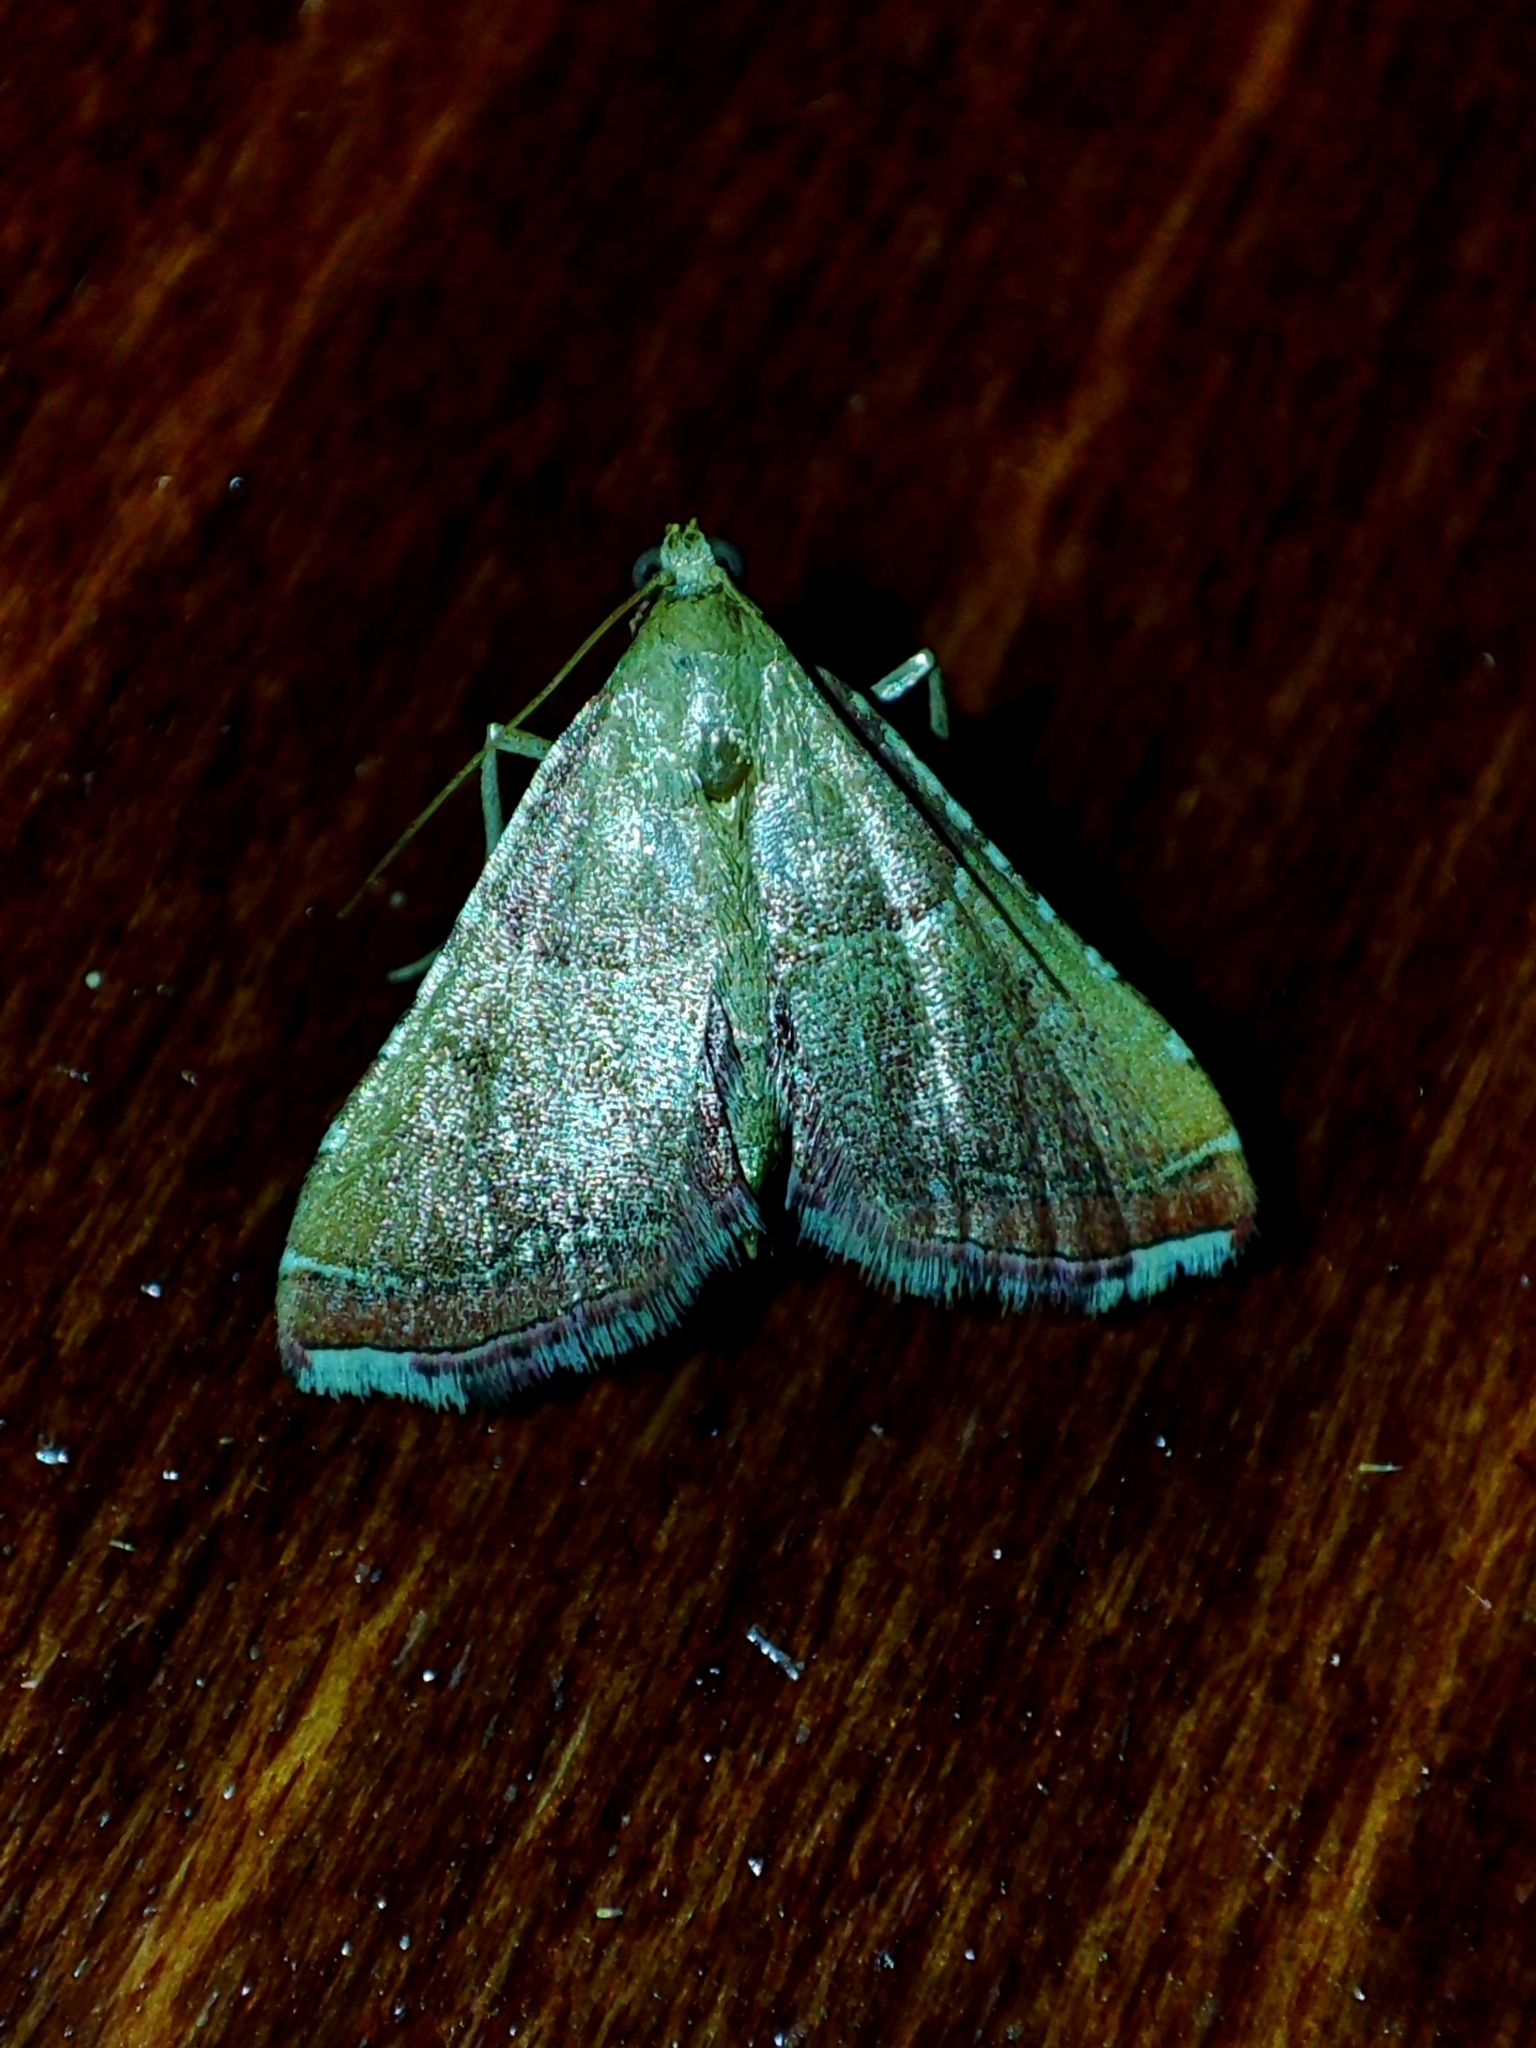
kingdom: Animalia
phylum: Arthropoda
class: Insecta
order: Lepidoptera
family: Pyralidae
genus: Endotricha
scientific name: Endotricha flammealis
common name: Rosy tabby
